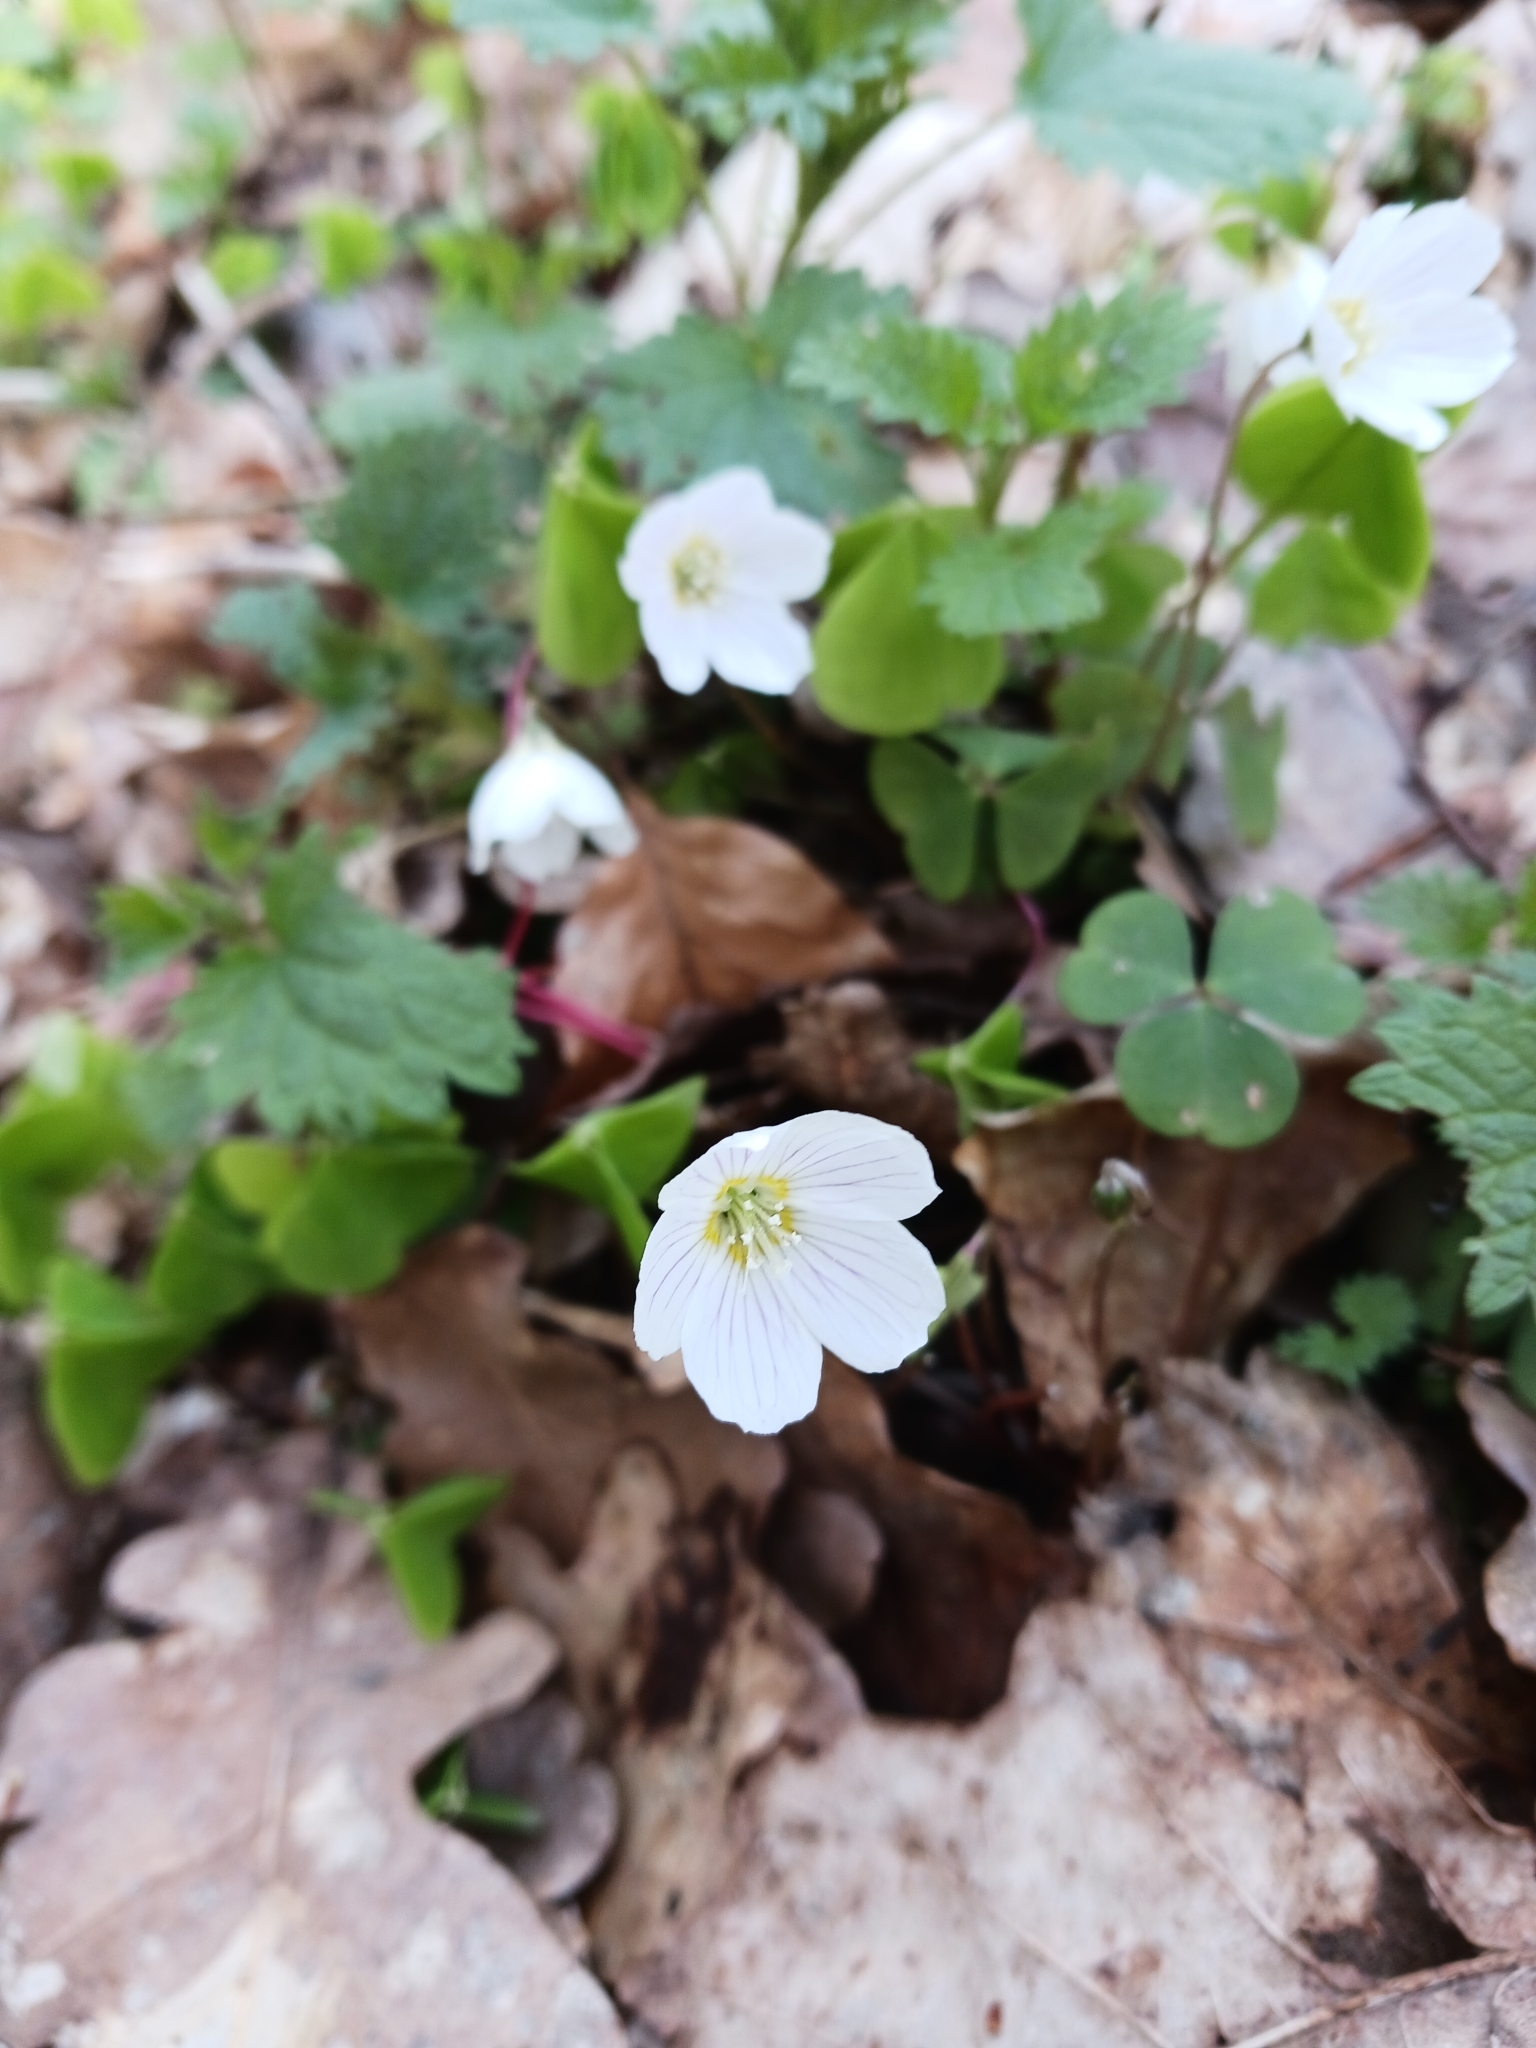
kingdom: Plantae
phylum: Tracheophyta
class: Magnoliopsida
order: Oxalidales
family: Oxalidaceae
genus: Oxalis
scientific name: Oxalis acetosella
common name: Wood-sorrel
